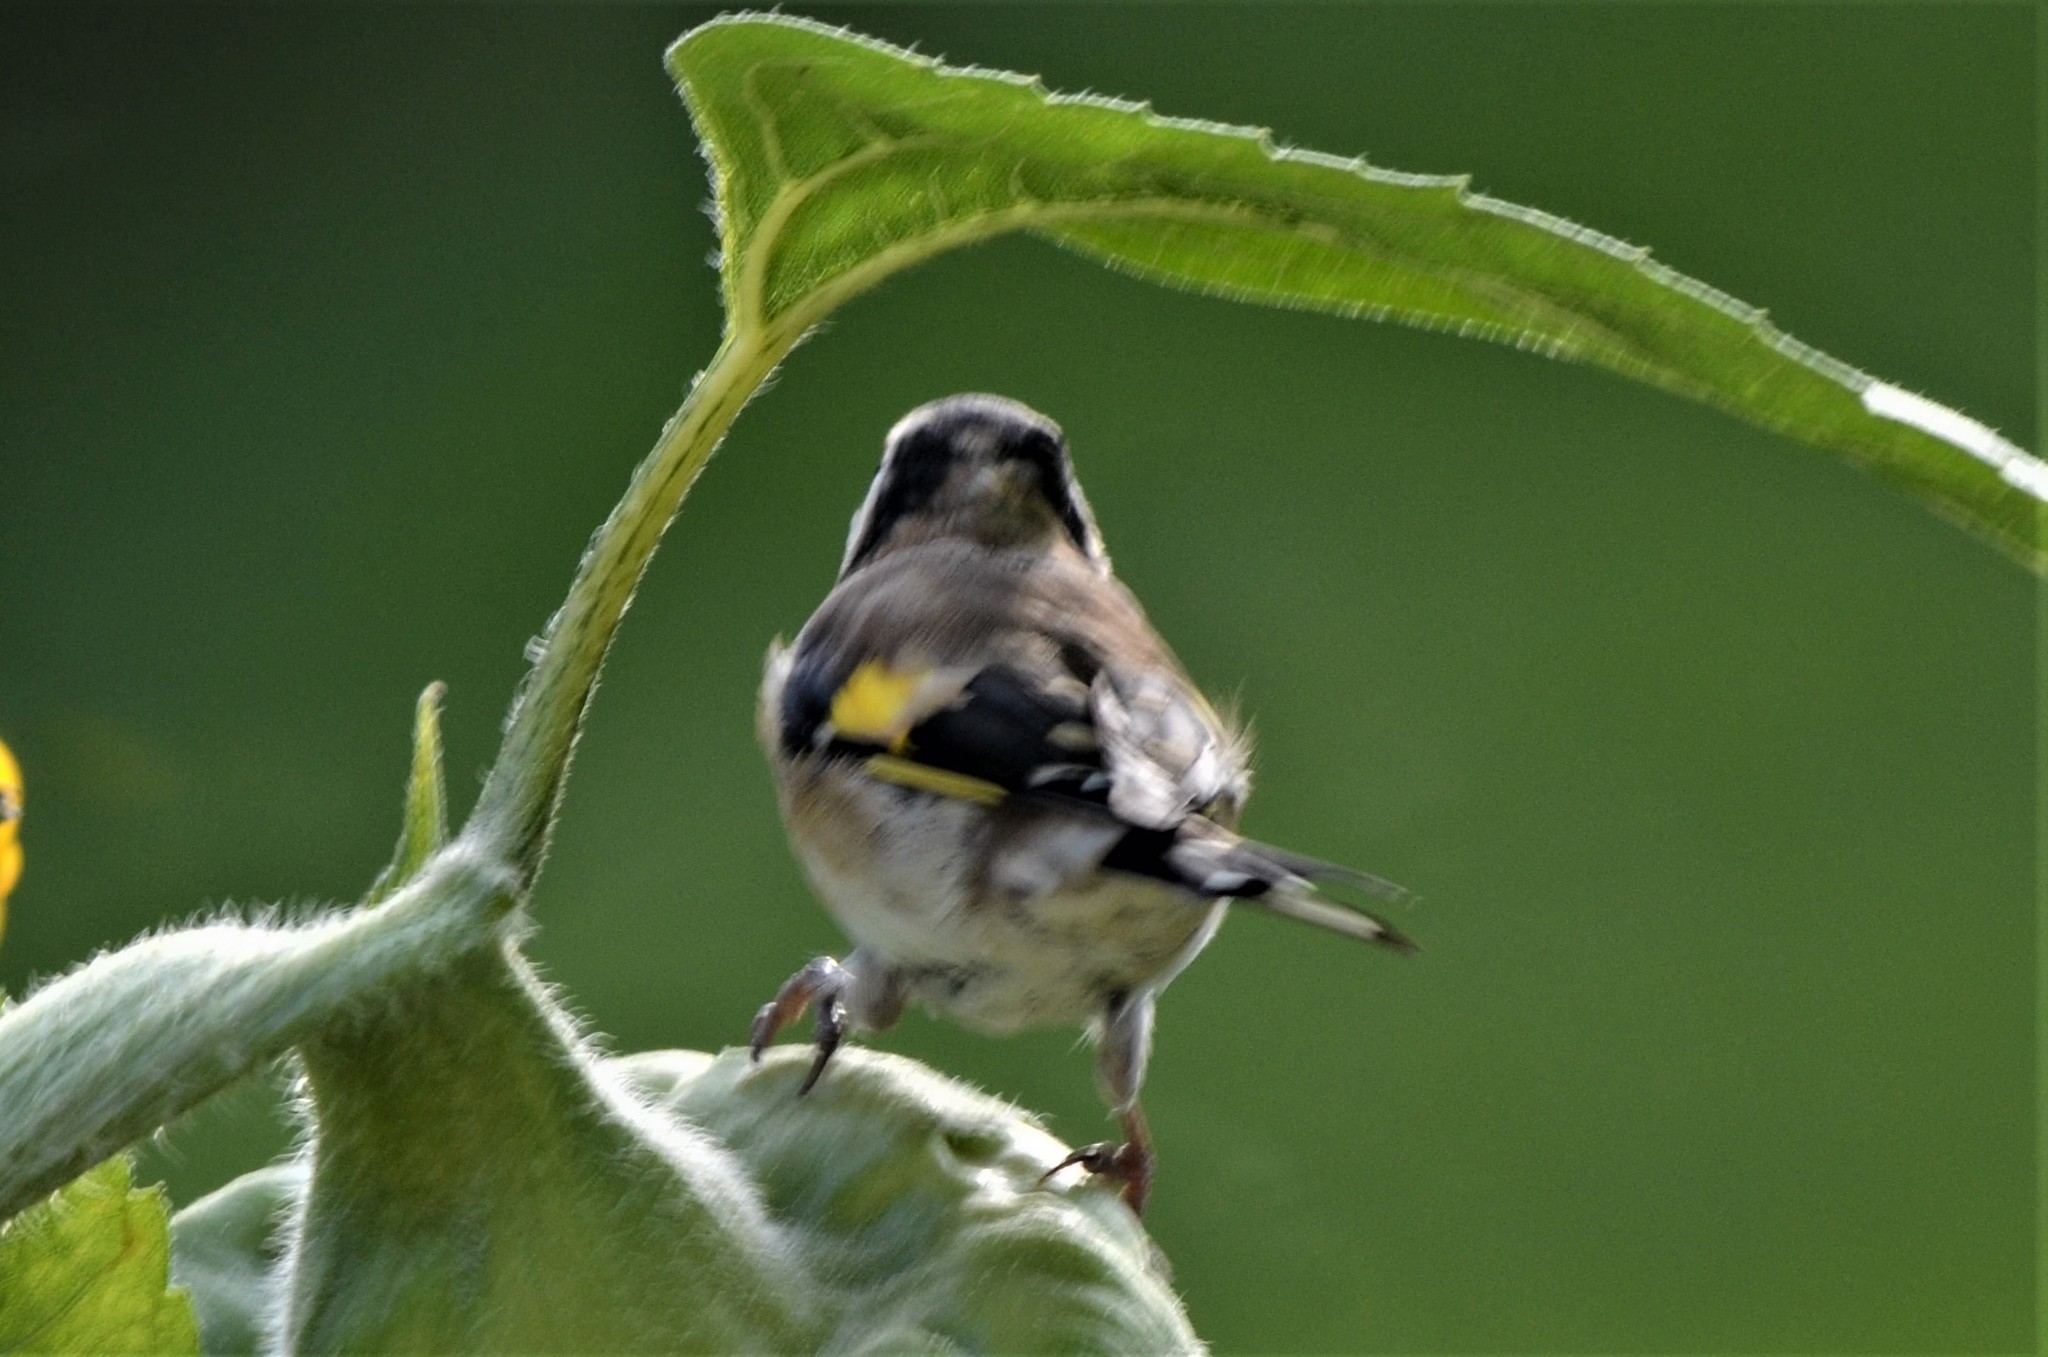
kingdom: Animalia
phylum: Chordata
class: Aves
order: Passeriformes
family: Fringillidae
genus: Carduelis
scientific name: Carduelis carduelis
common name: European goldfinch
